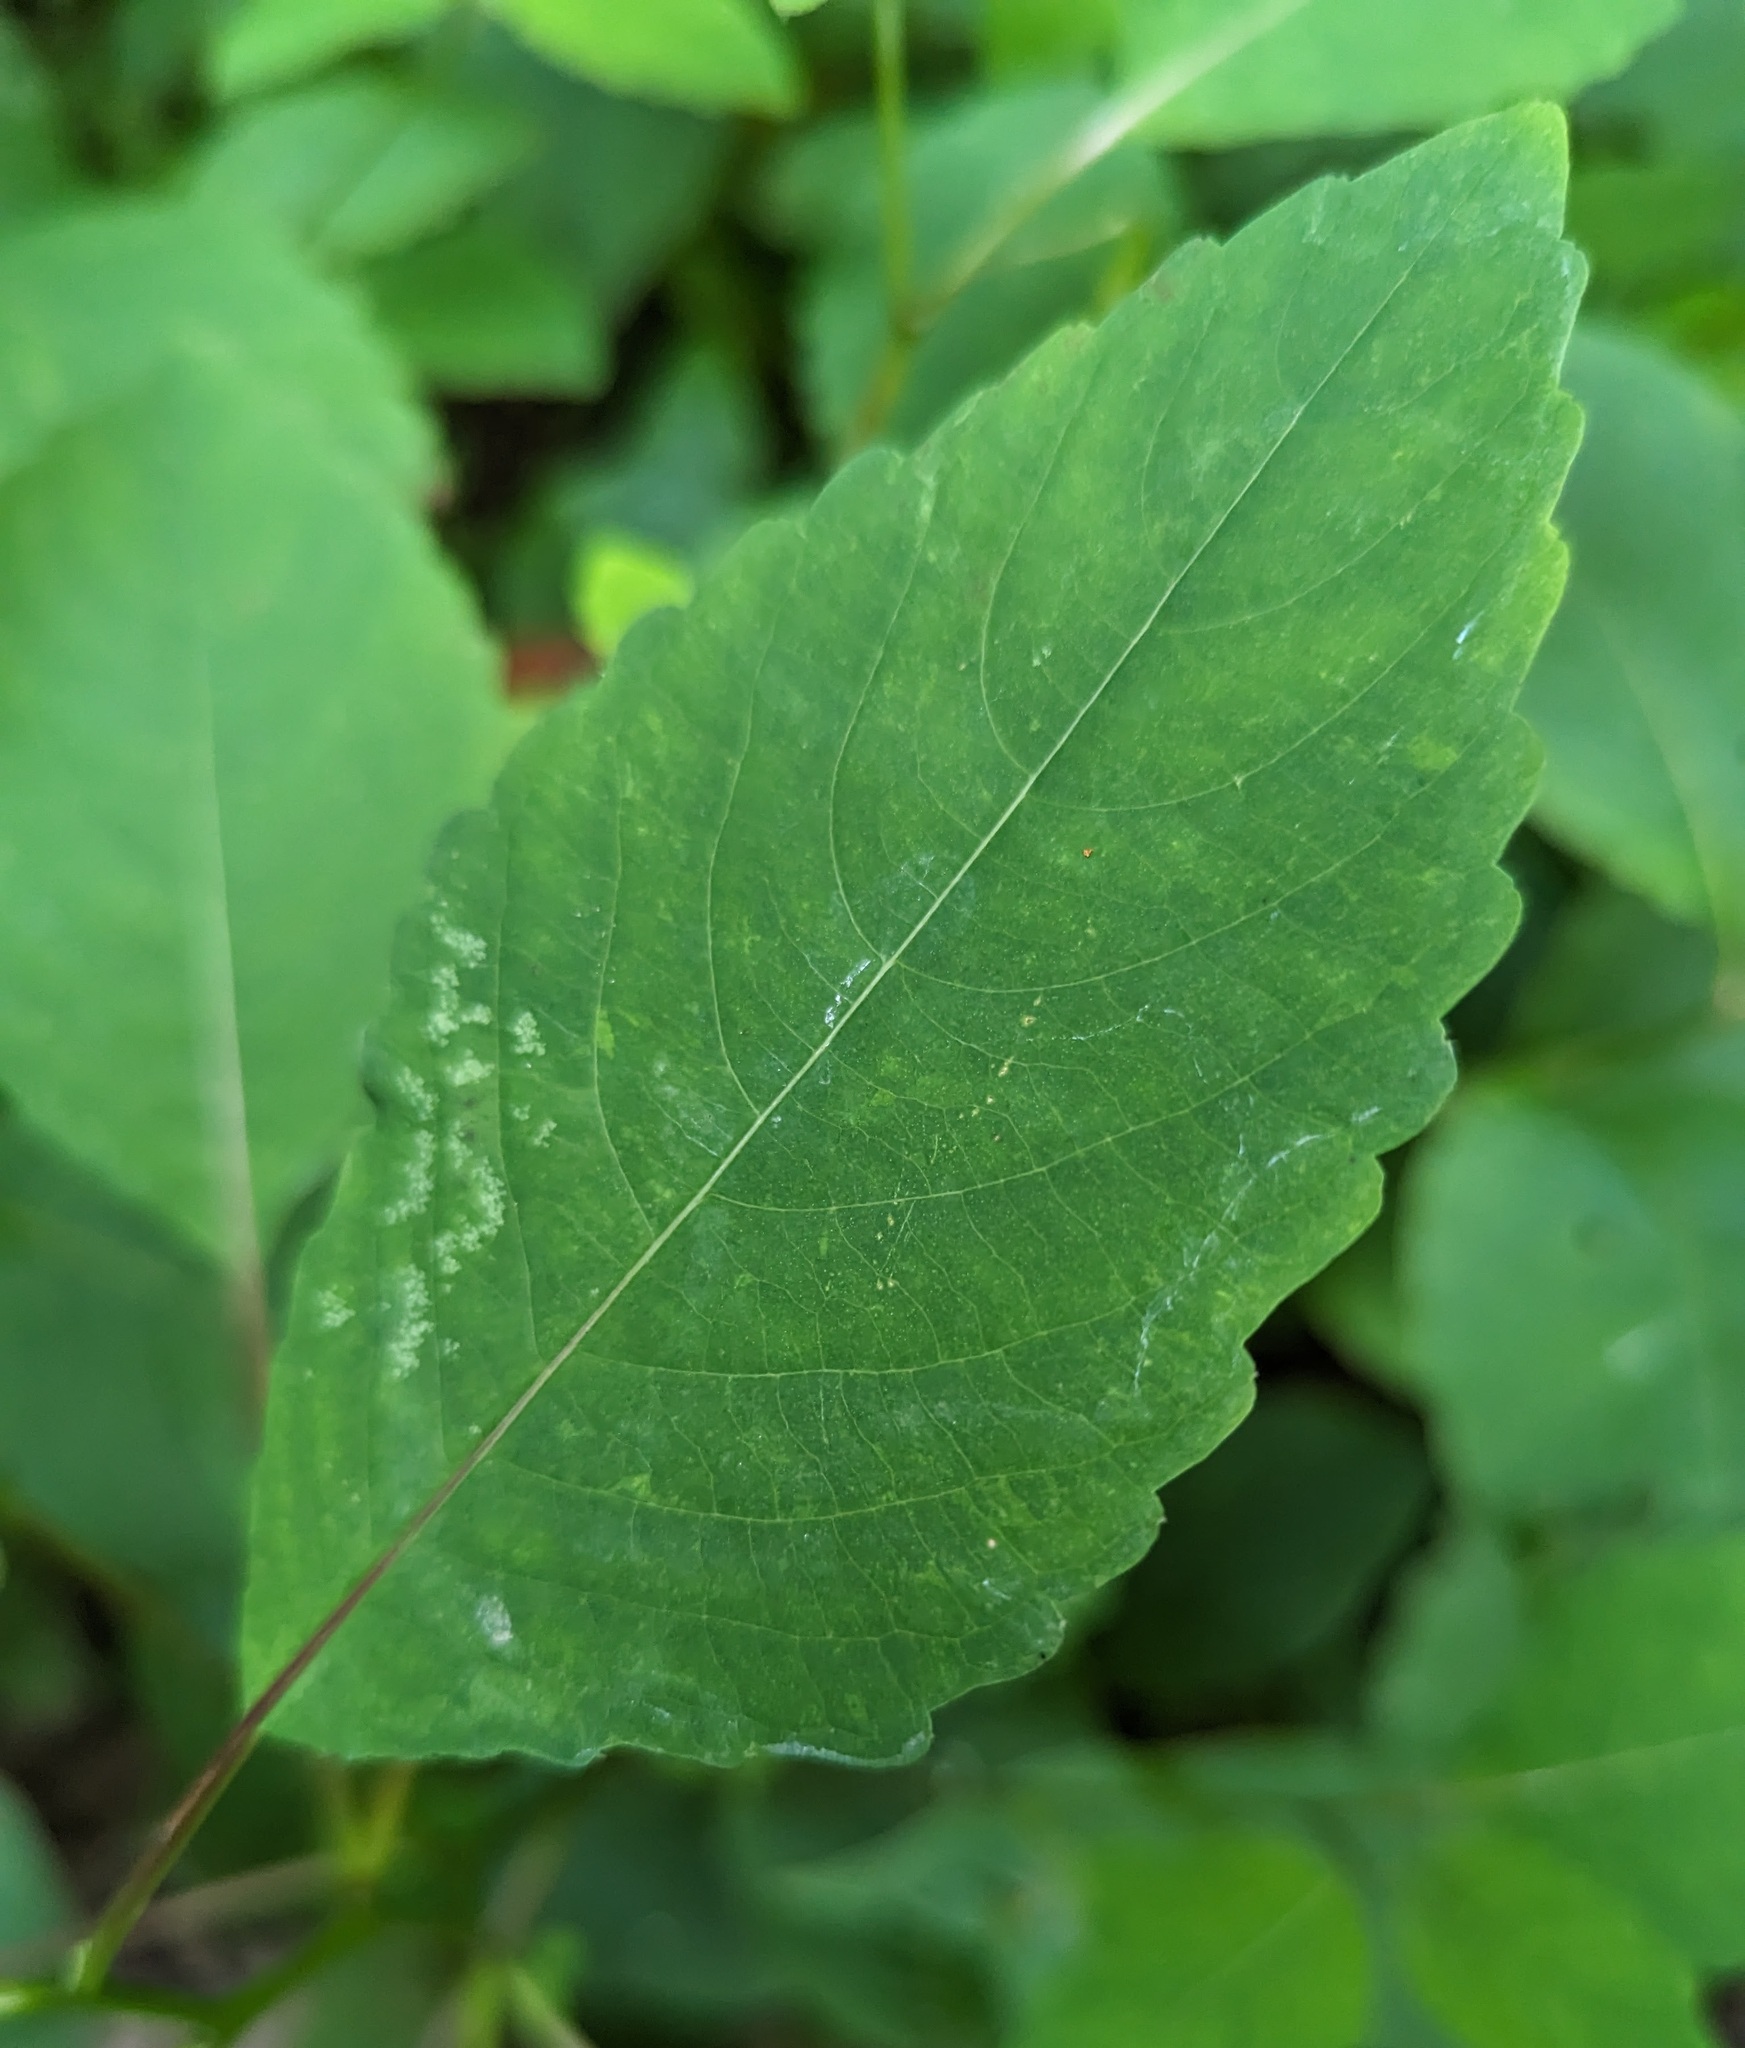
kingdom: Plantae
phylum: Tracheophyta
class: Magnoliopsida
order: Ericales
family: Balsaminaceae
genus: Impatiens
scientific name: Impatiens pallida
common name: Pale snapweed
